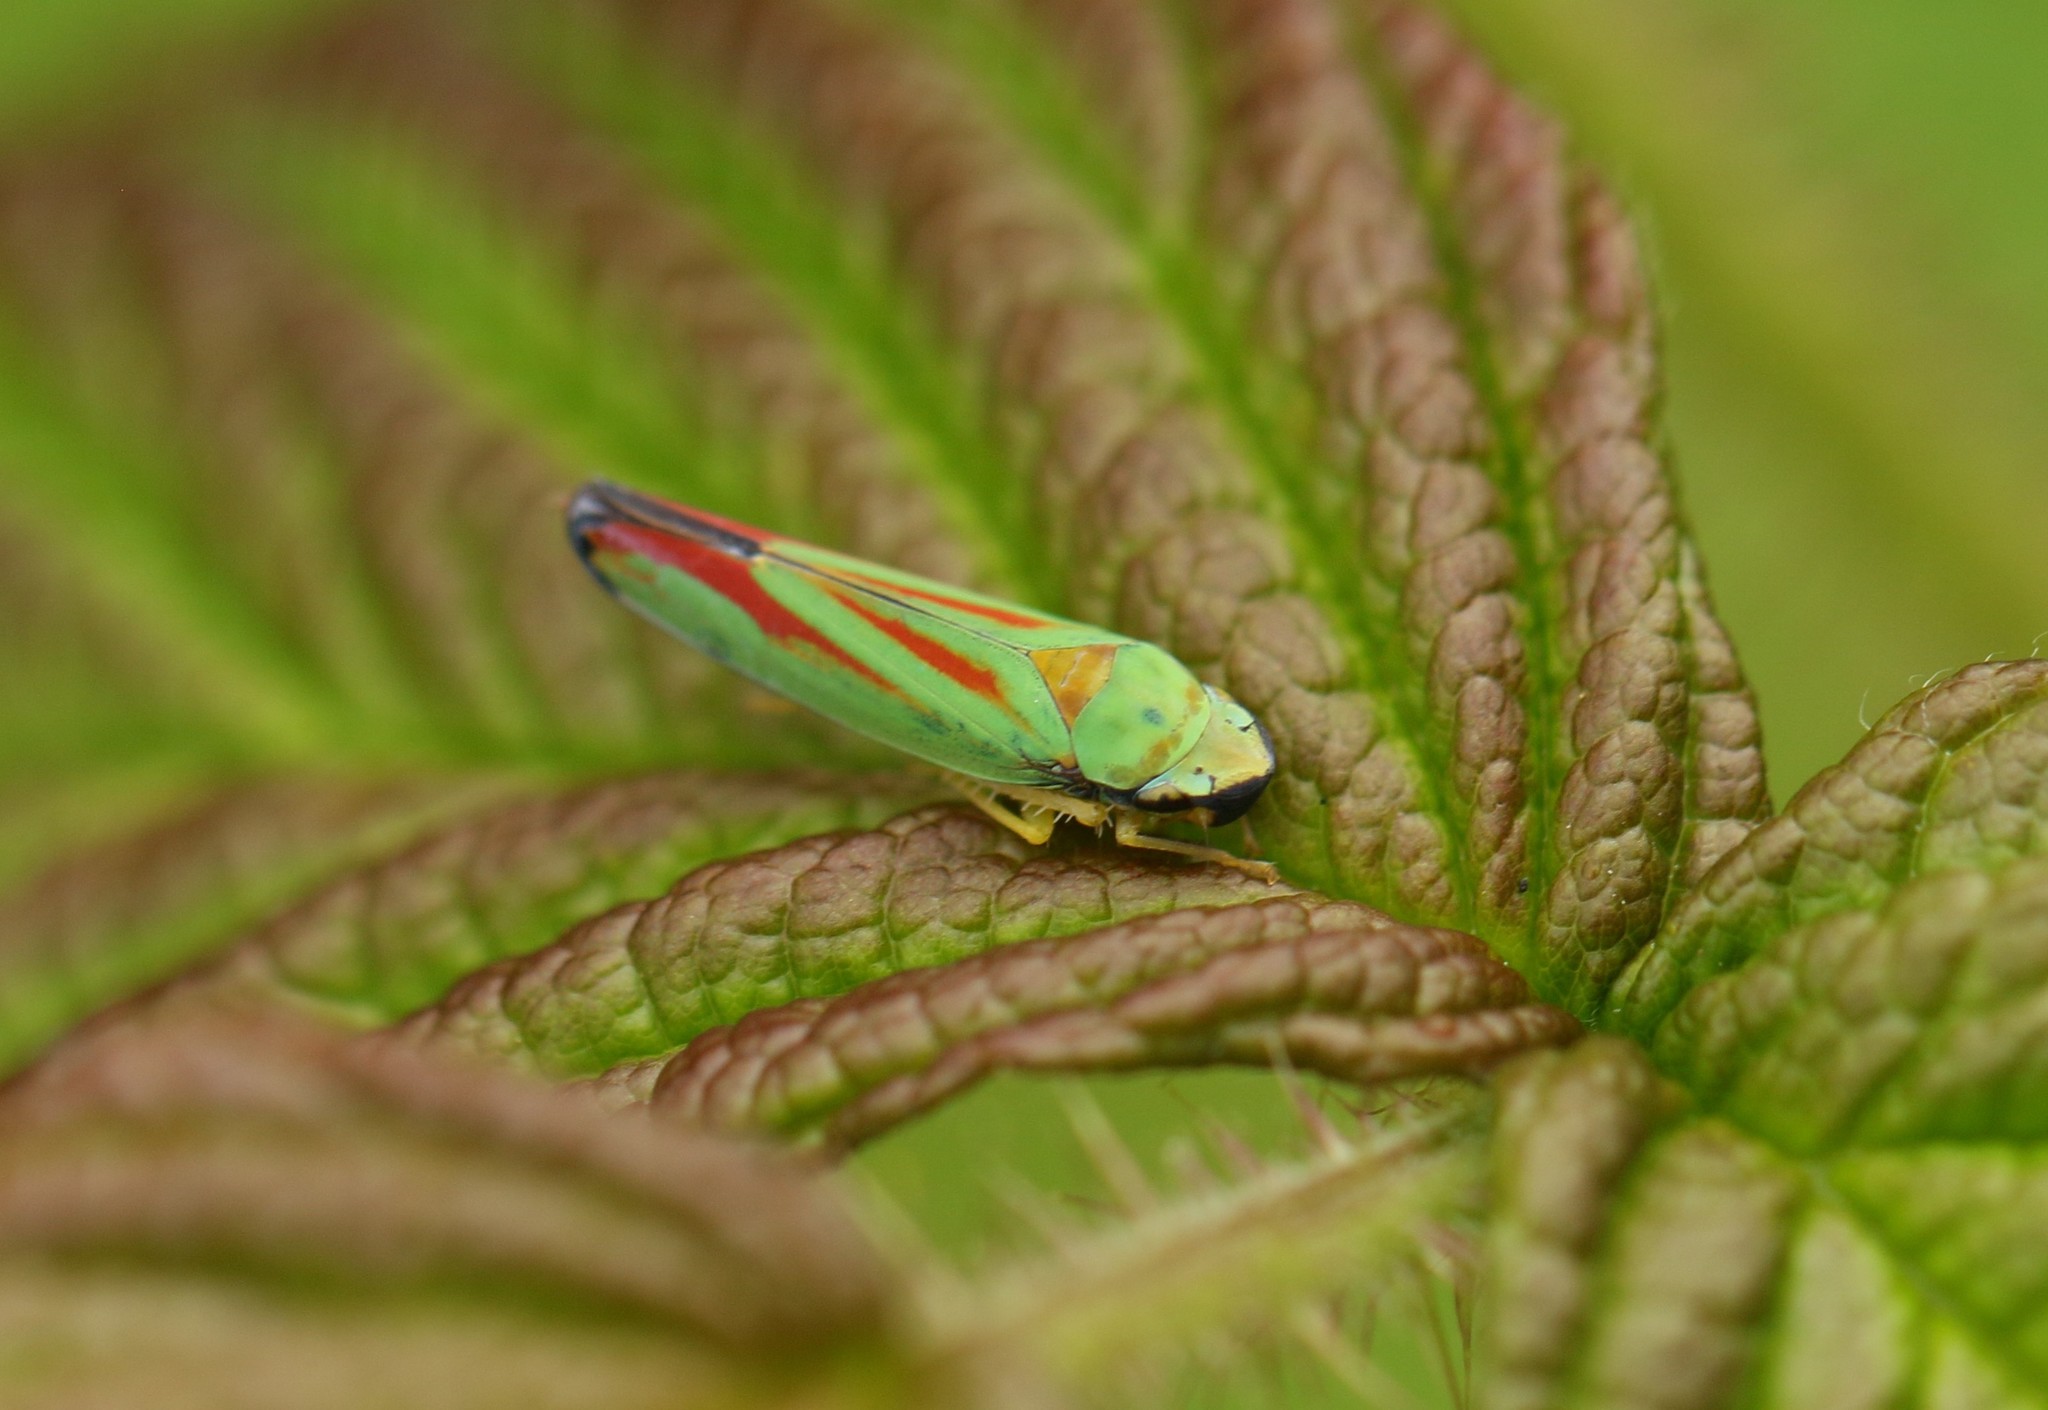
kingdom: Animalia
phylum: Arthropoda
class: Insecta
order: Hemiptera
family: Cicadellidae
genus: Graphocephala
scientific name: Graphocephala fennahi
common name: Rhododendron leafhopper
